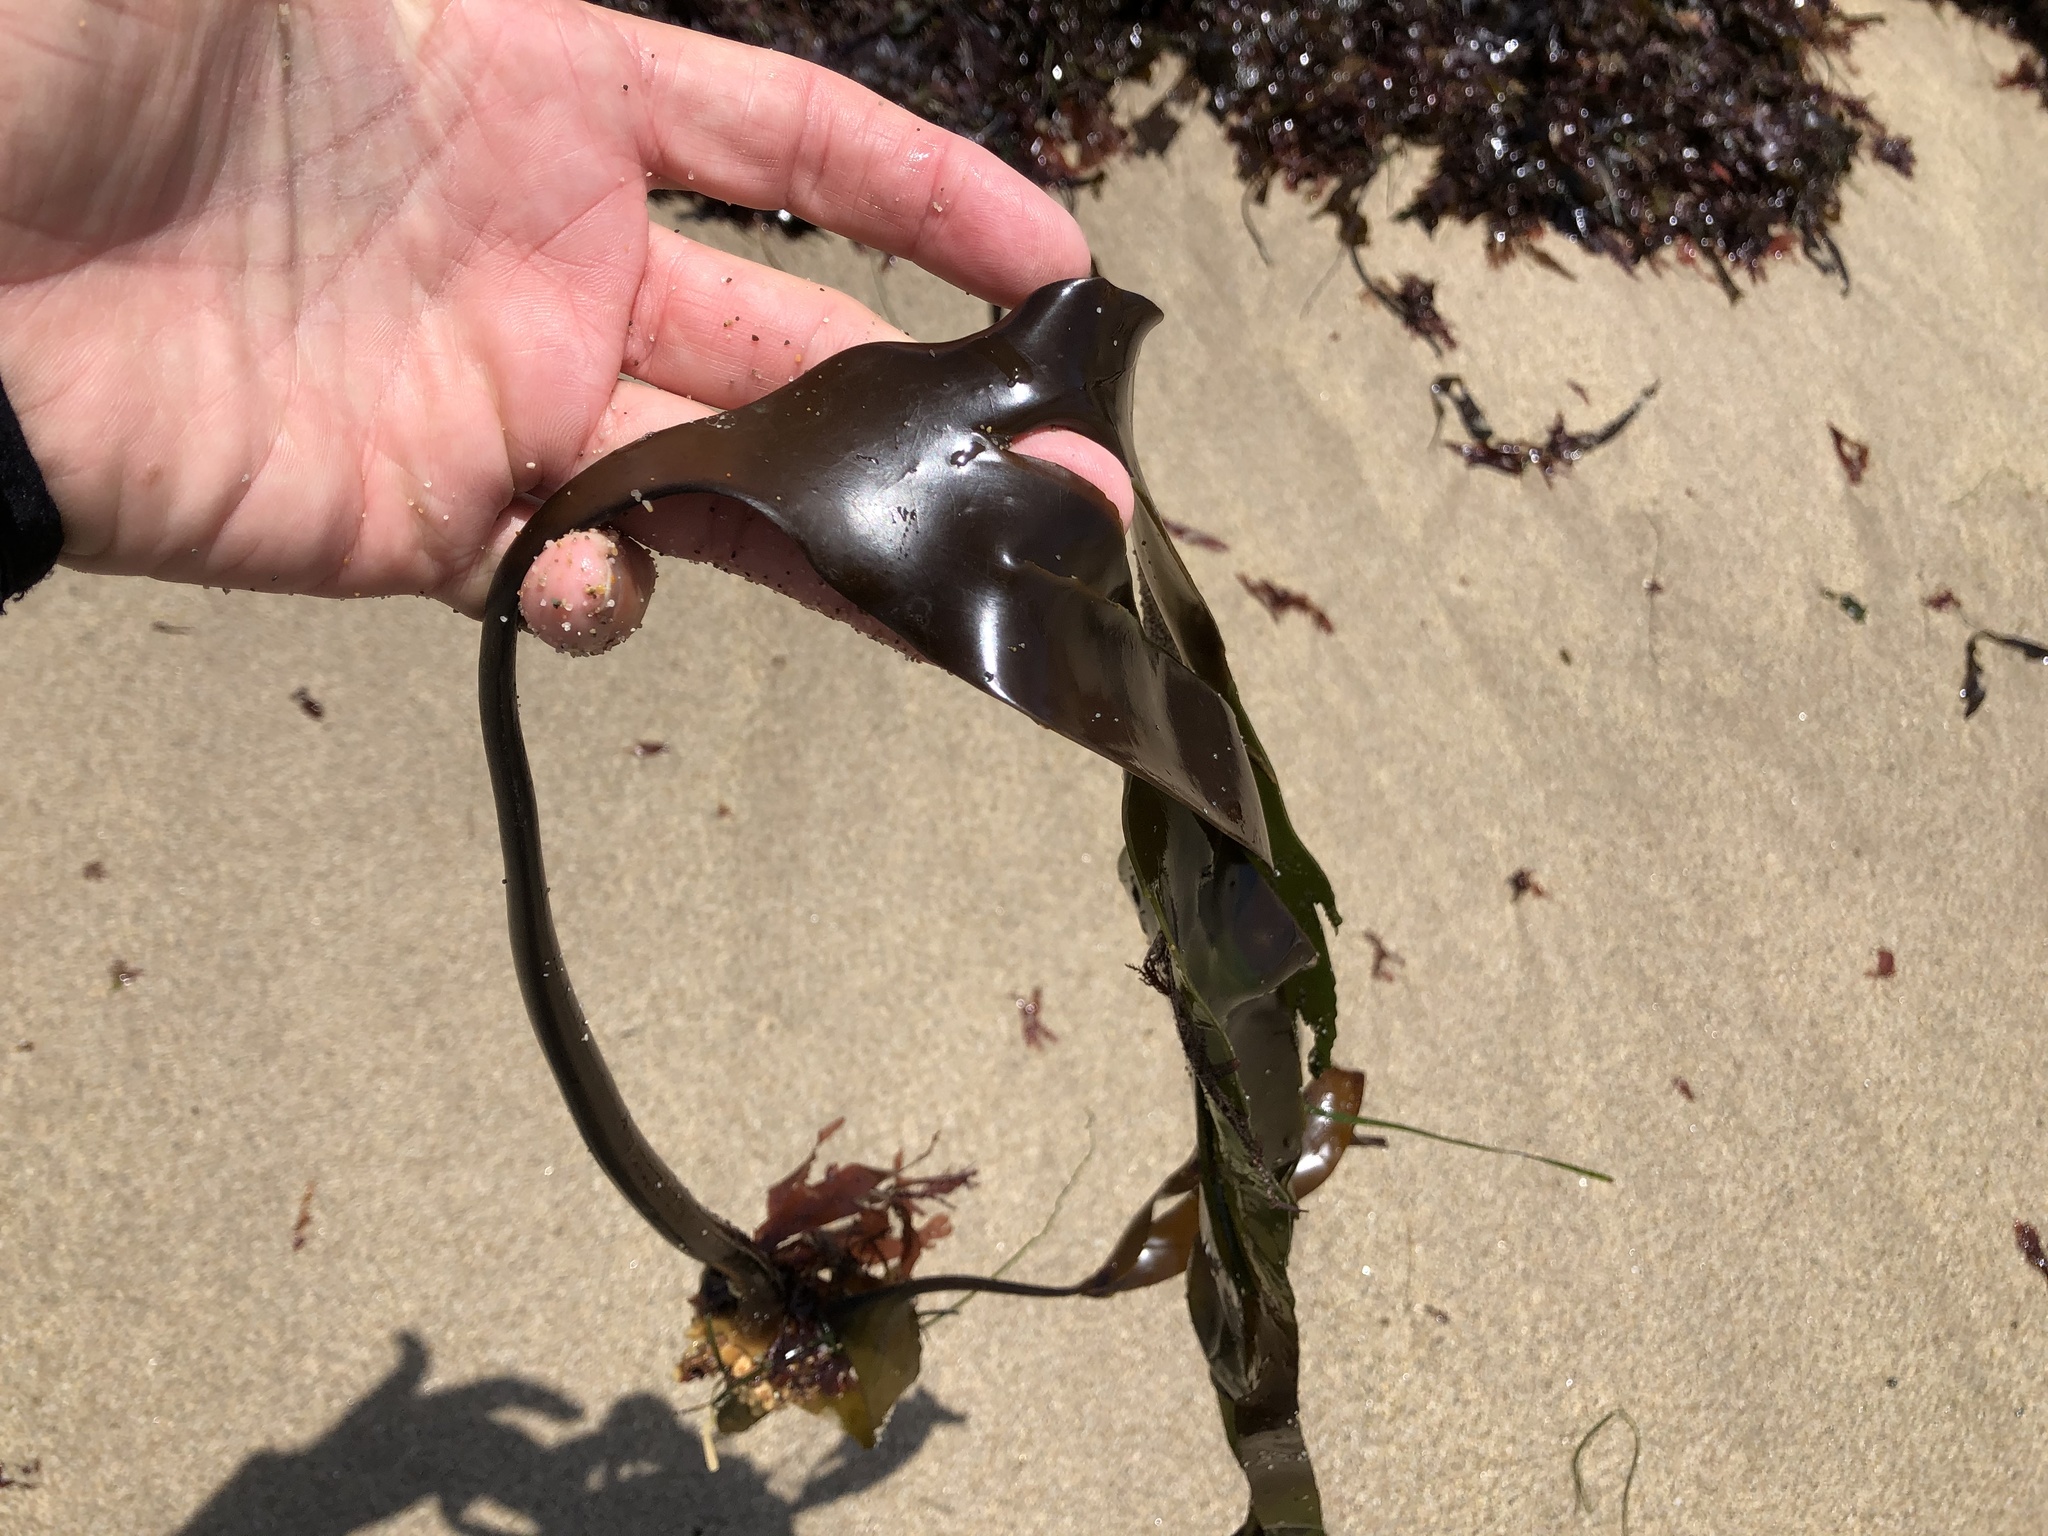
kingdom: Chromista
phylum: Ochrophyta
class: Phaeophyceae
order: Laminariales
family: Laminariaceae
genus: Laminaria
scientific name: Laminaria setchellii
